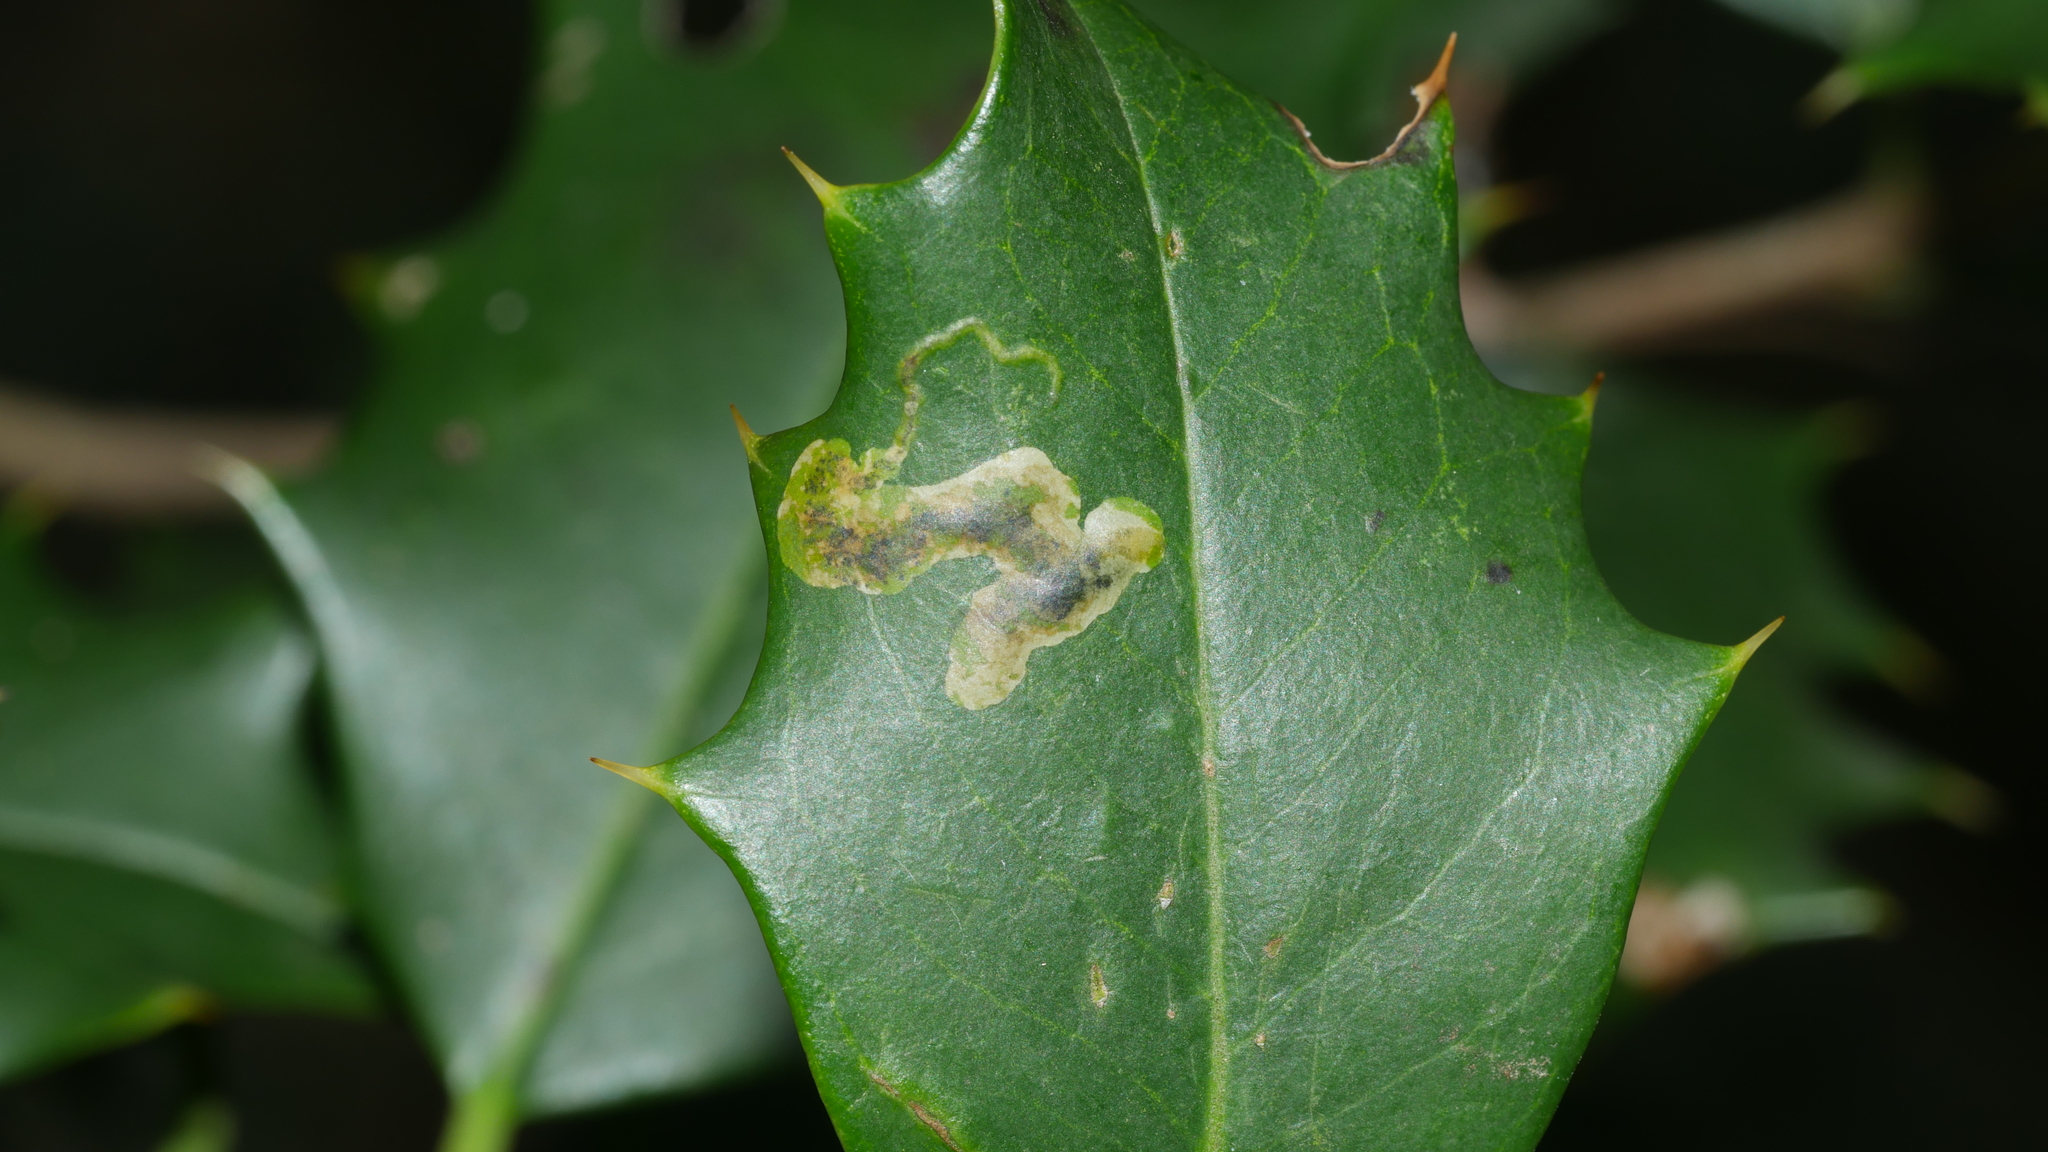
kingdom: Animalia
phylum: Arthropoda
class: Insecta
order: Diptera
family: Agromyzidae
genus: Phytomyza
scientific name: Phytomyza ilicicola
